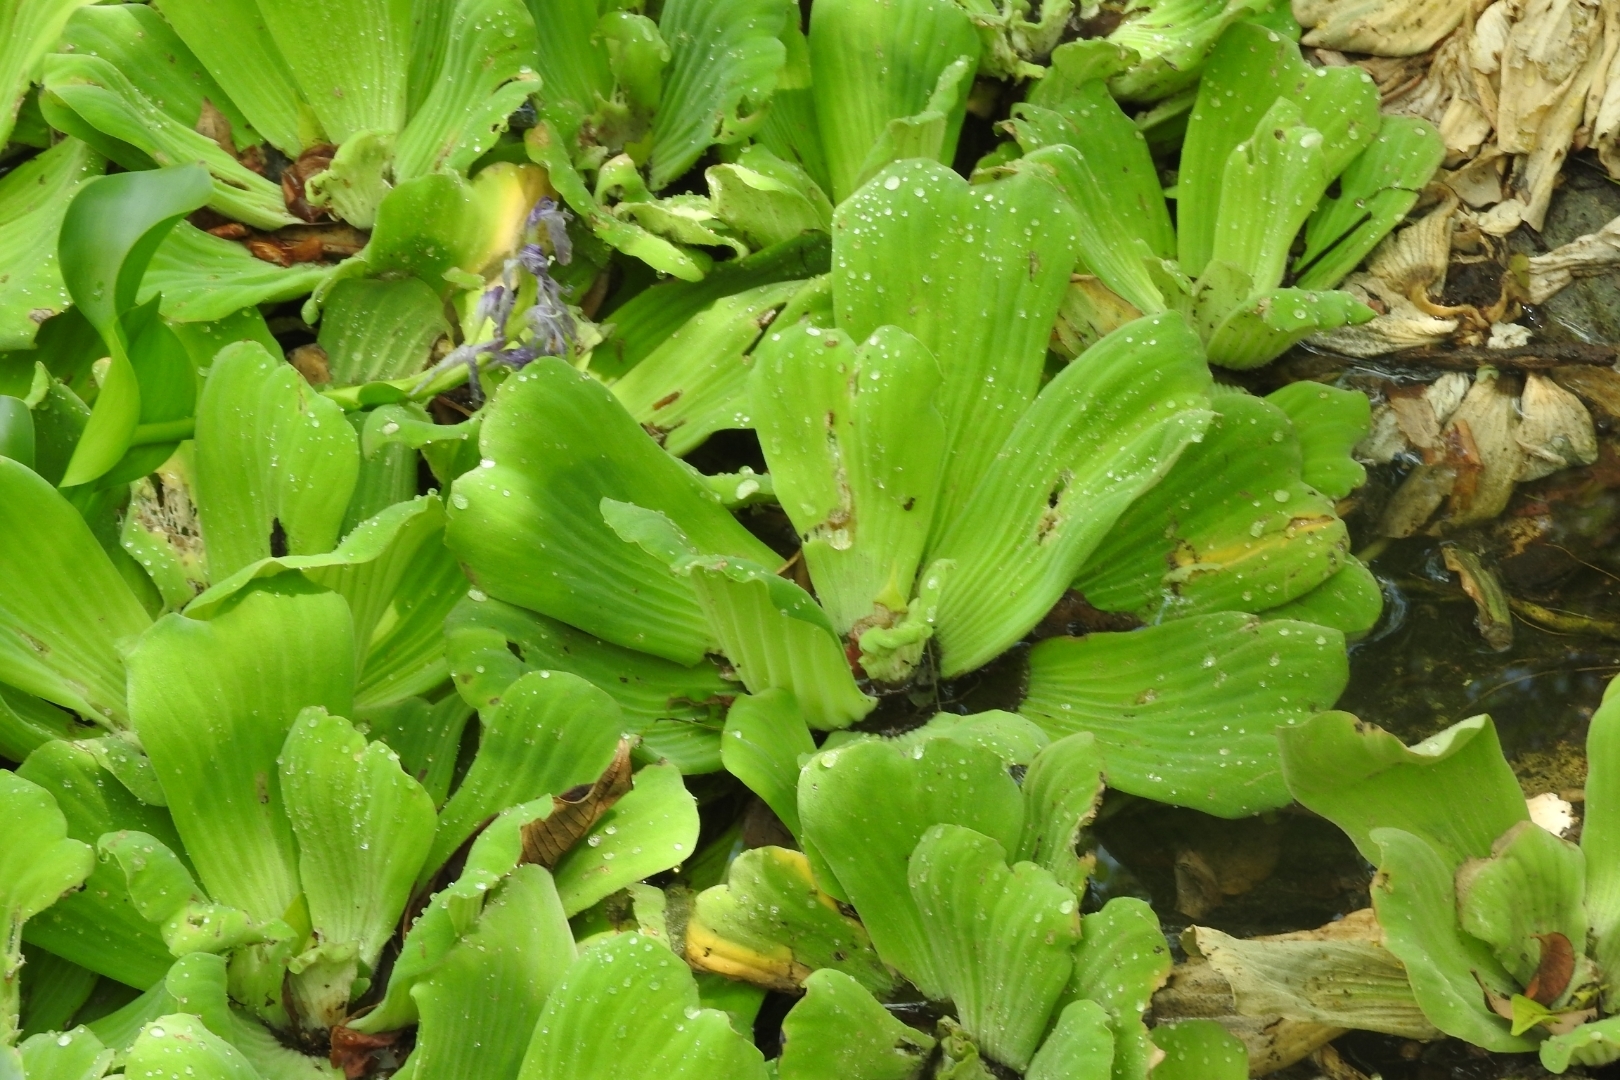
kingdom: Plantae
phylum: Tracheophyta
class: Liliopsida
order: Alismatales
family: Araceae
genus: Pistia
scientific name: Pistia stratiotes
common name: Water lettuce
